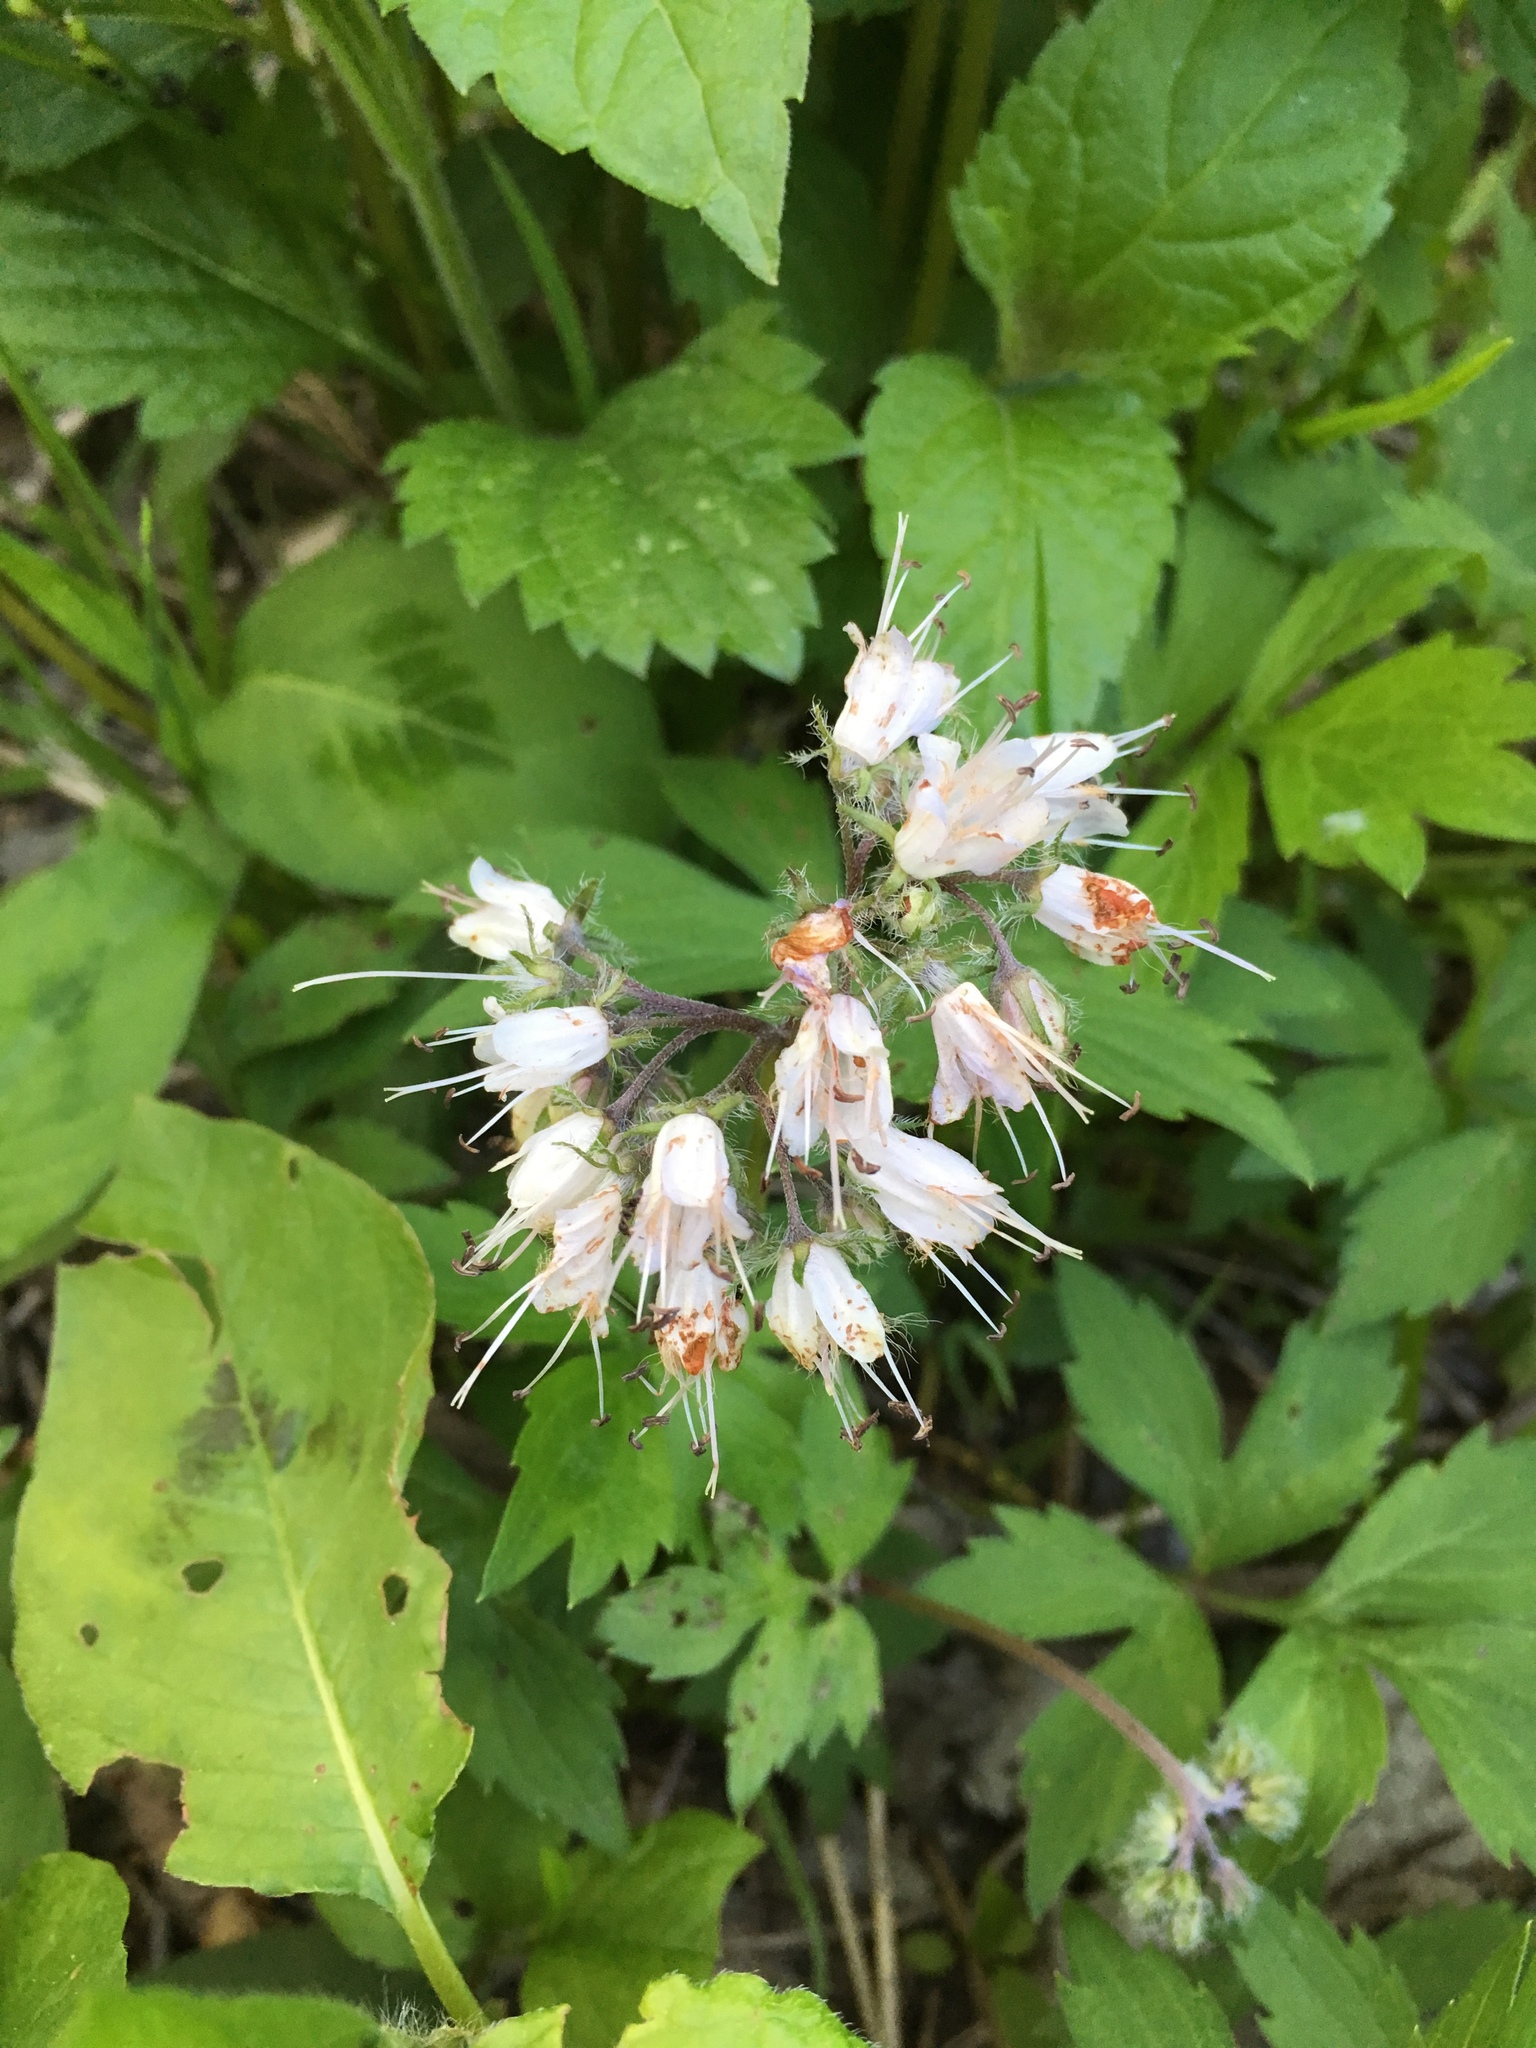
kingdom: Plantae
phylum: Tracheophyta
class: Magnoliopsida
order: Boraginales
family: Hydrophyllaceae
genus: Hydrophyllum
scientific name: Hydrophyllum virginianum
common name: Virginia waterleaf
